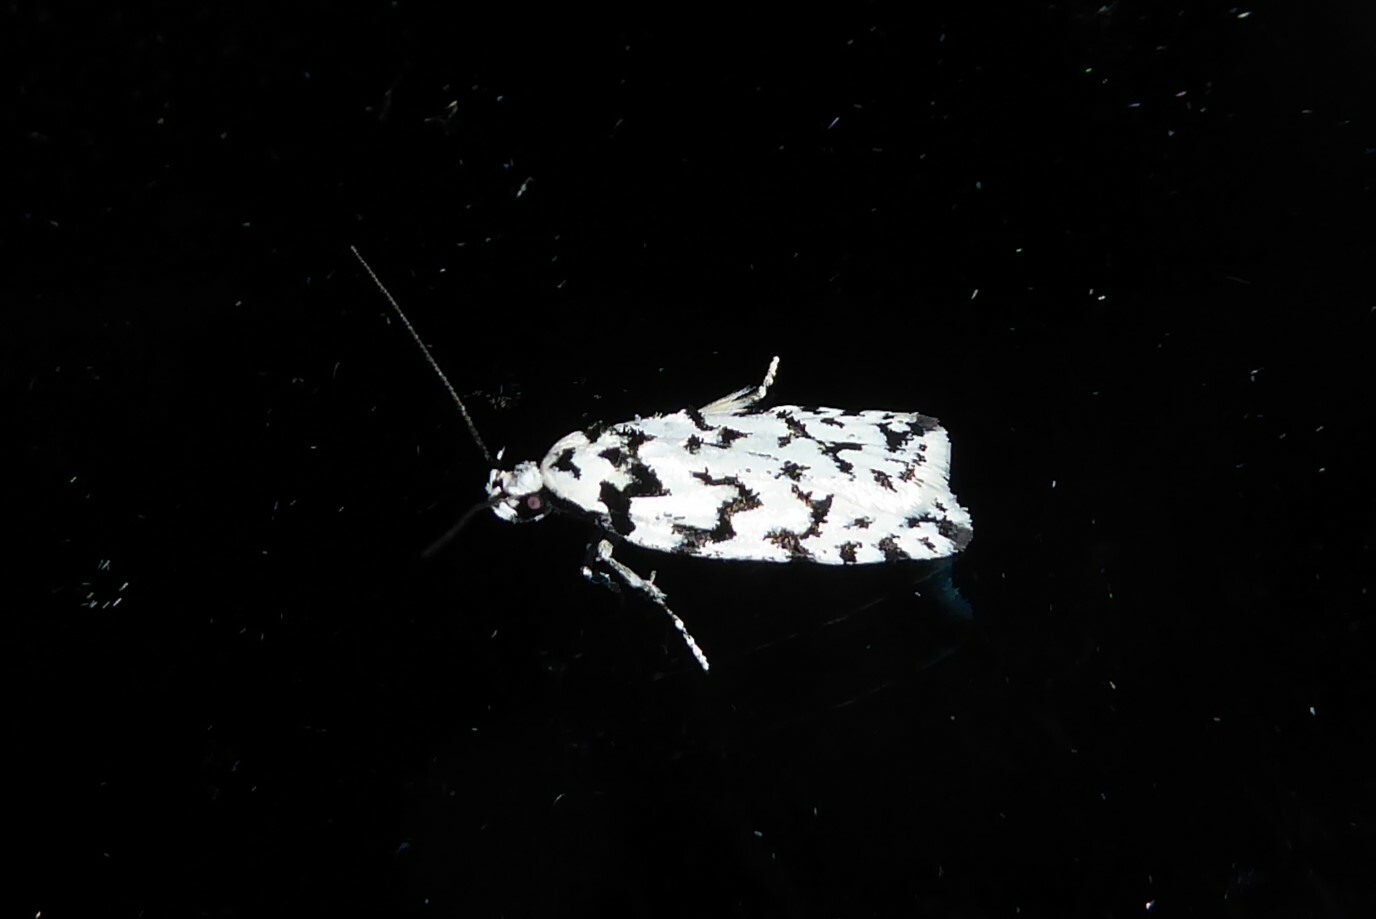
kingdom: Animalia
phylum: Arthropoda
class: Insecta
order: Lepidoptera
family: Oecophoridae
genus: Izatha
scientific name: Izatha katadiktya
